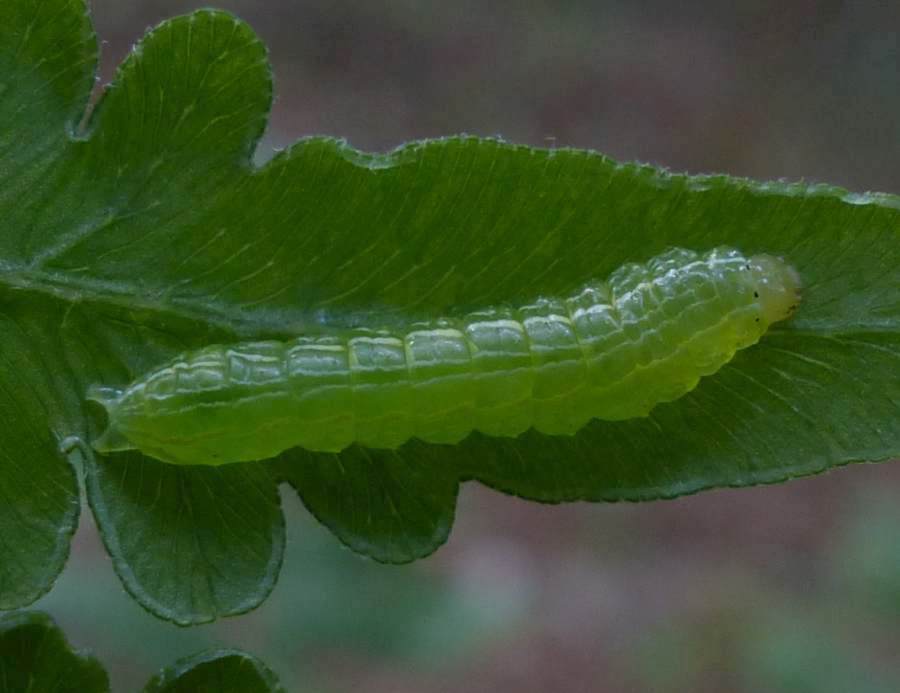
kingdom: Animalia
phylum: Arthropoda
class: Insecta
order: Lepidoptera
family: Noctuidae
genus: Callopistria
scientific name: Callopistria cordata
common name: Silver-spotted fern moth
